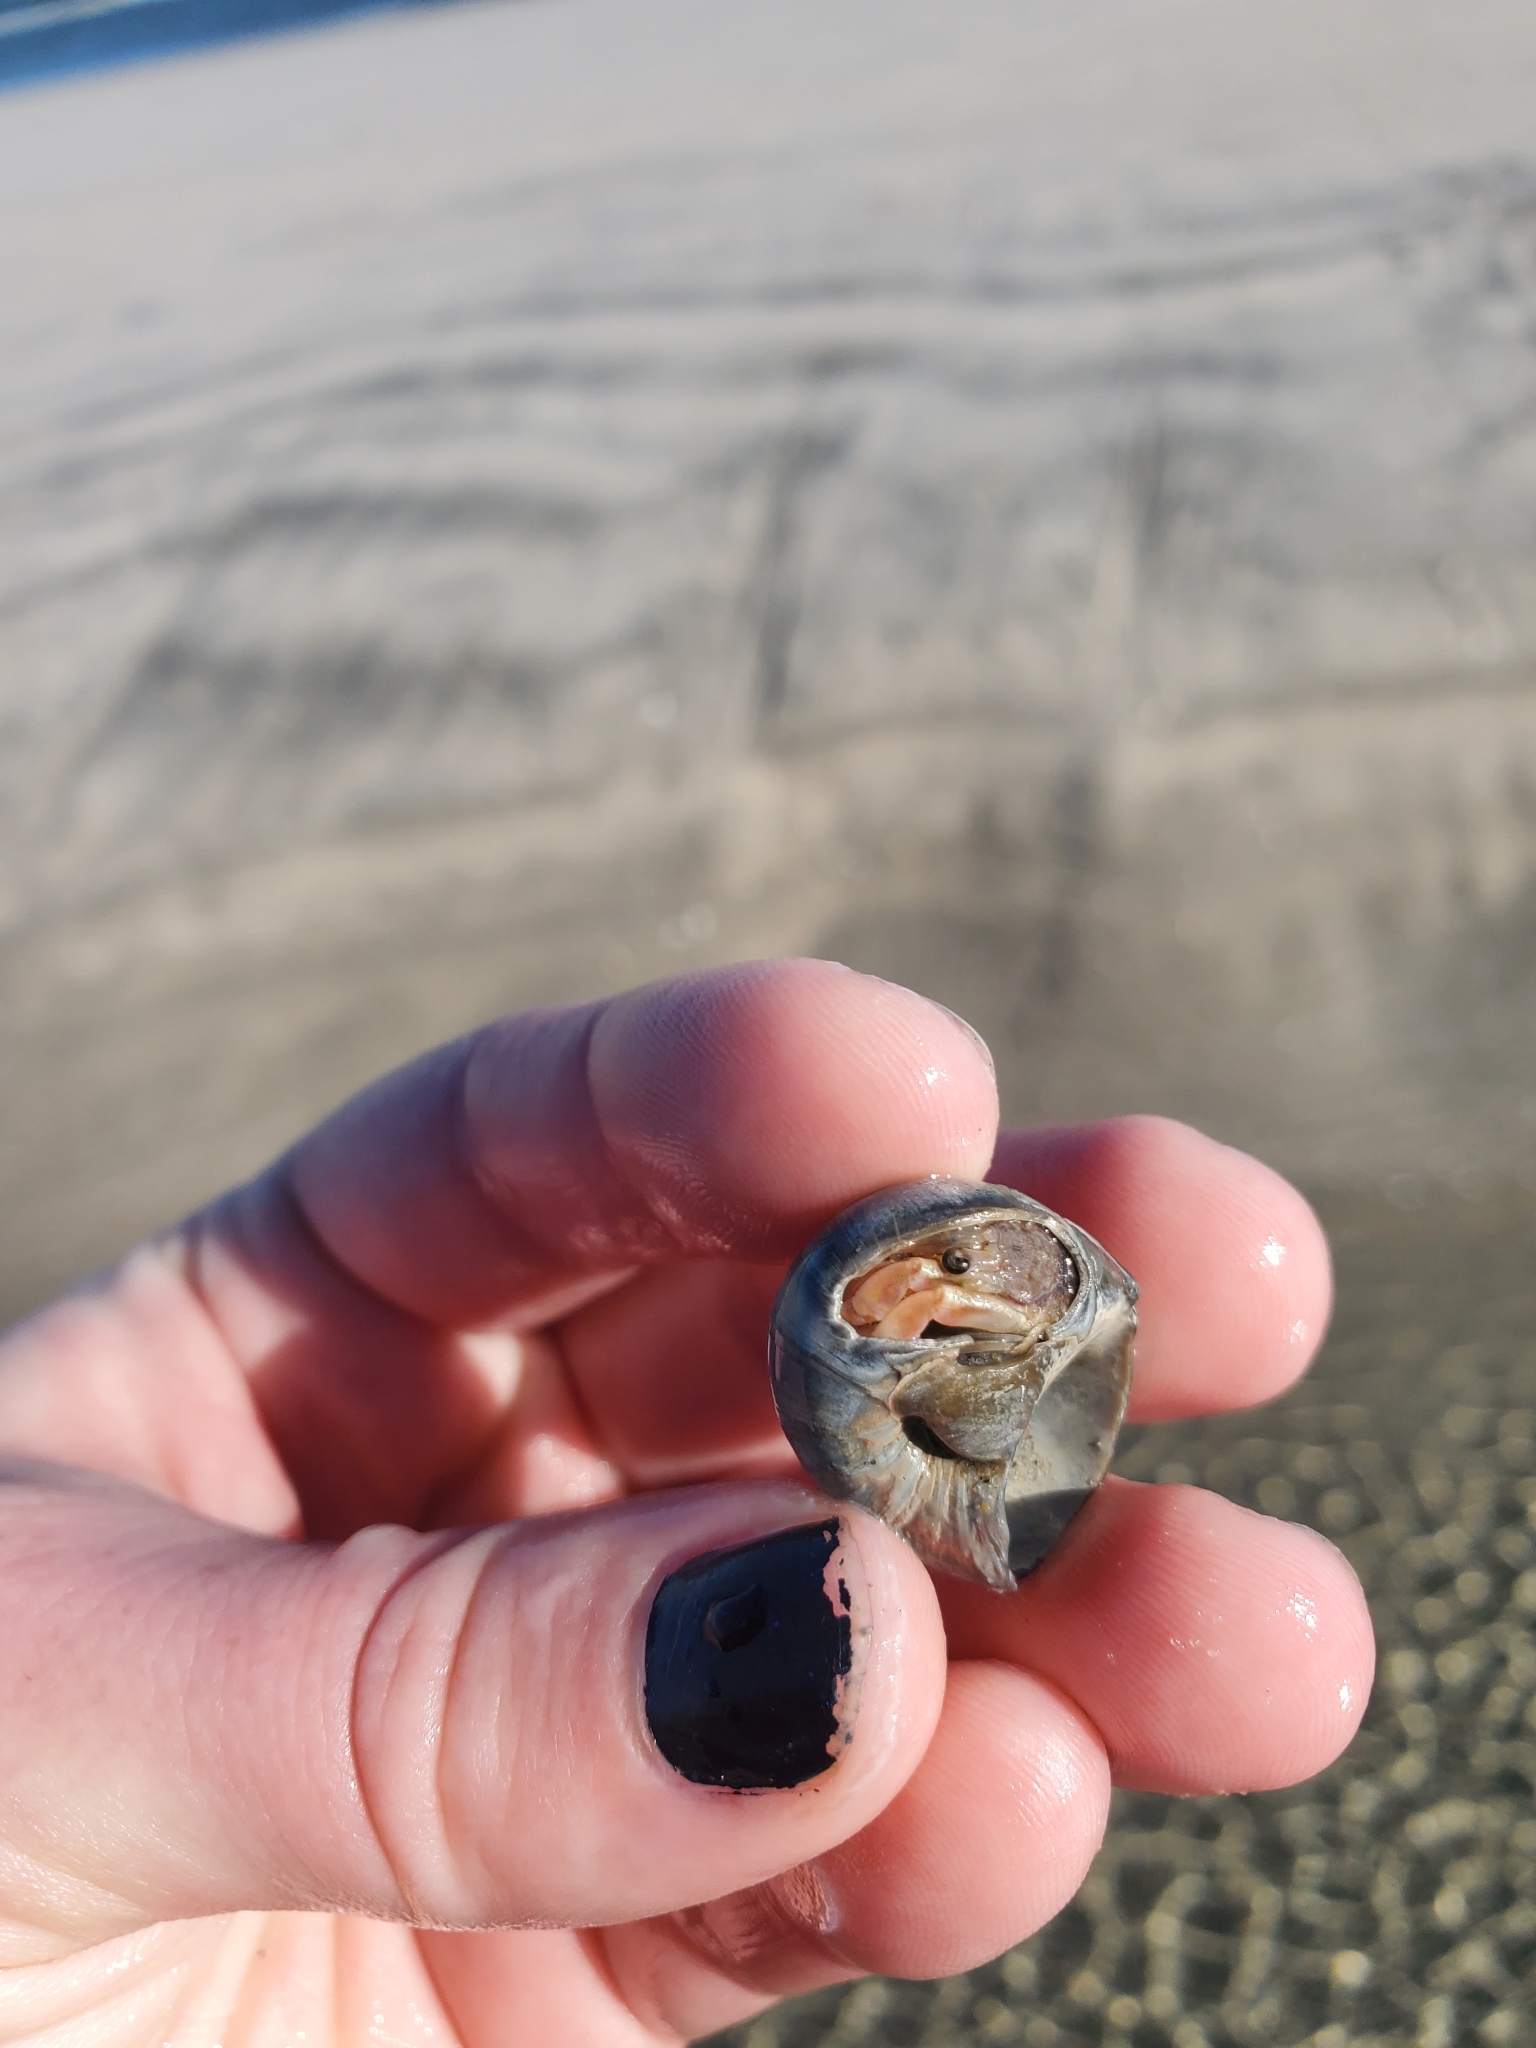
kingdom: Animalia
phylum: Arthropoda
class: Malacostraca
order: Decapoda
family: Paguridae
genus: Pagurus
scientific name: Pagurus longicarpus
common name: Long-armed hermit crab
